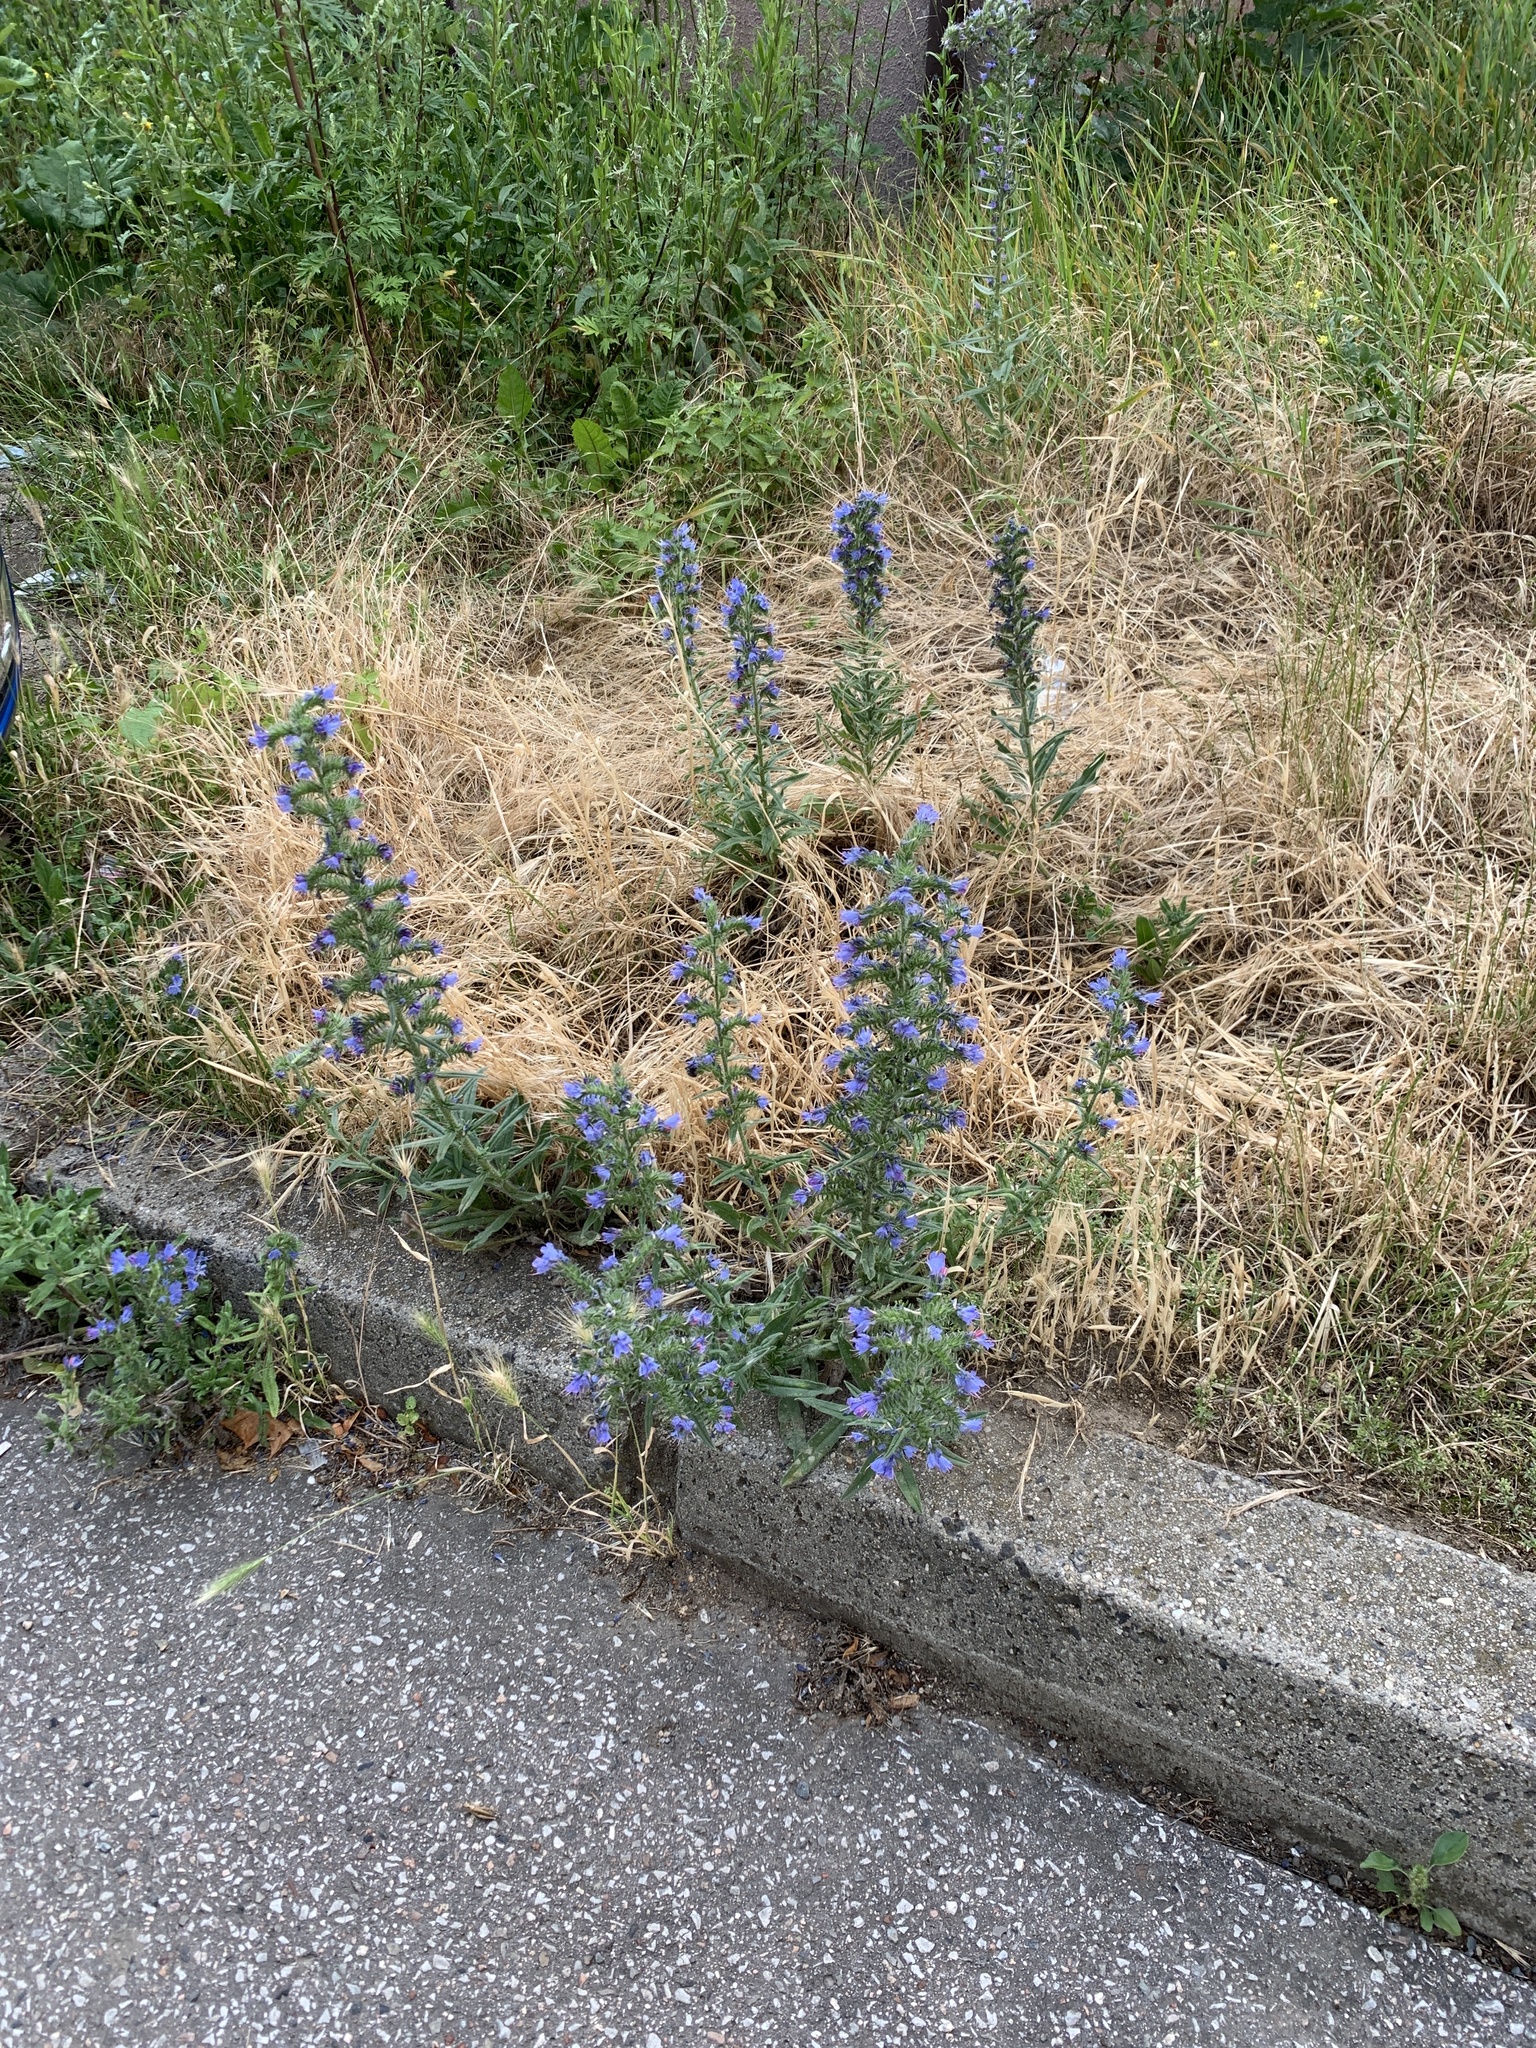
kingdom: Plantae
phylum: Tracheophyta
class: Magnoliopsida
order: Boraginales
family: Boraginaceae
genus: Echium
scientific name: Echium vulgare
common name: Common viper's bugloss
